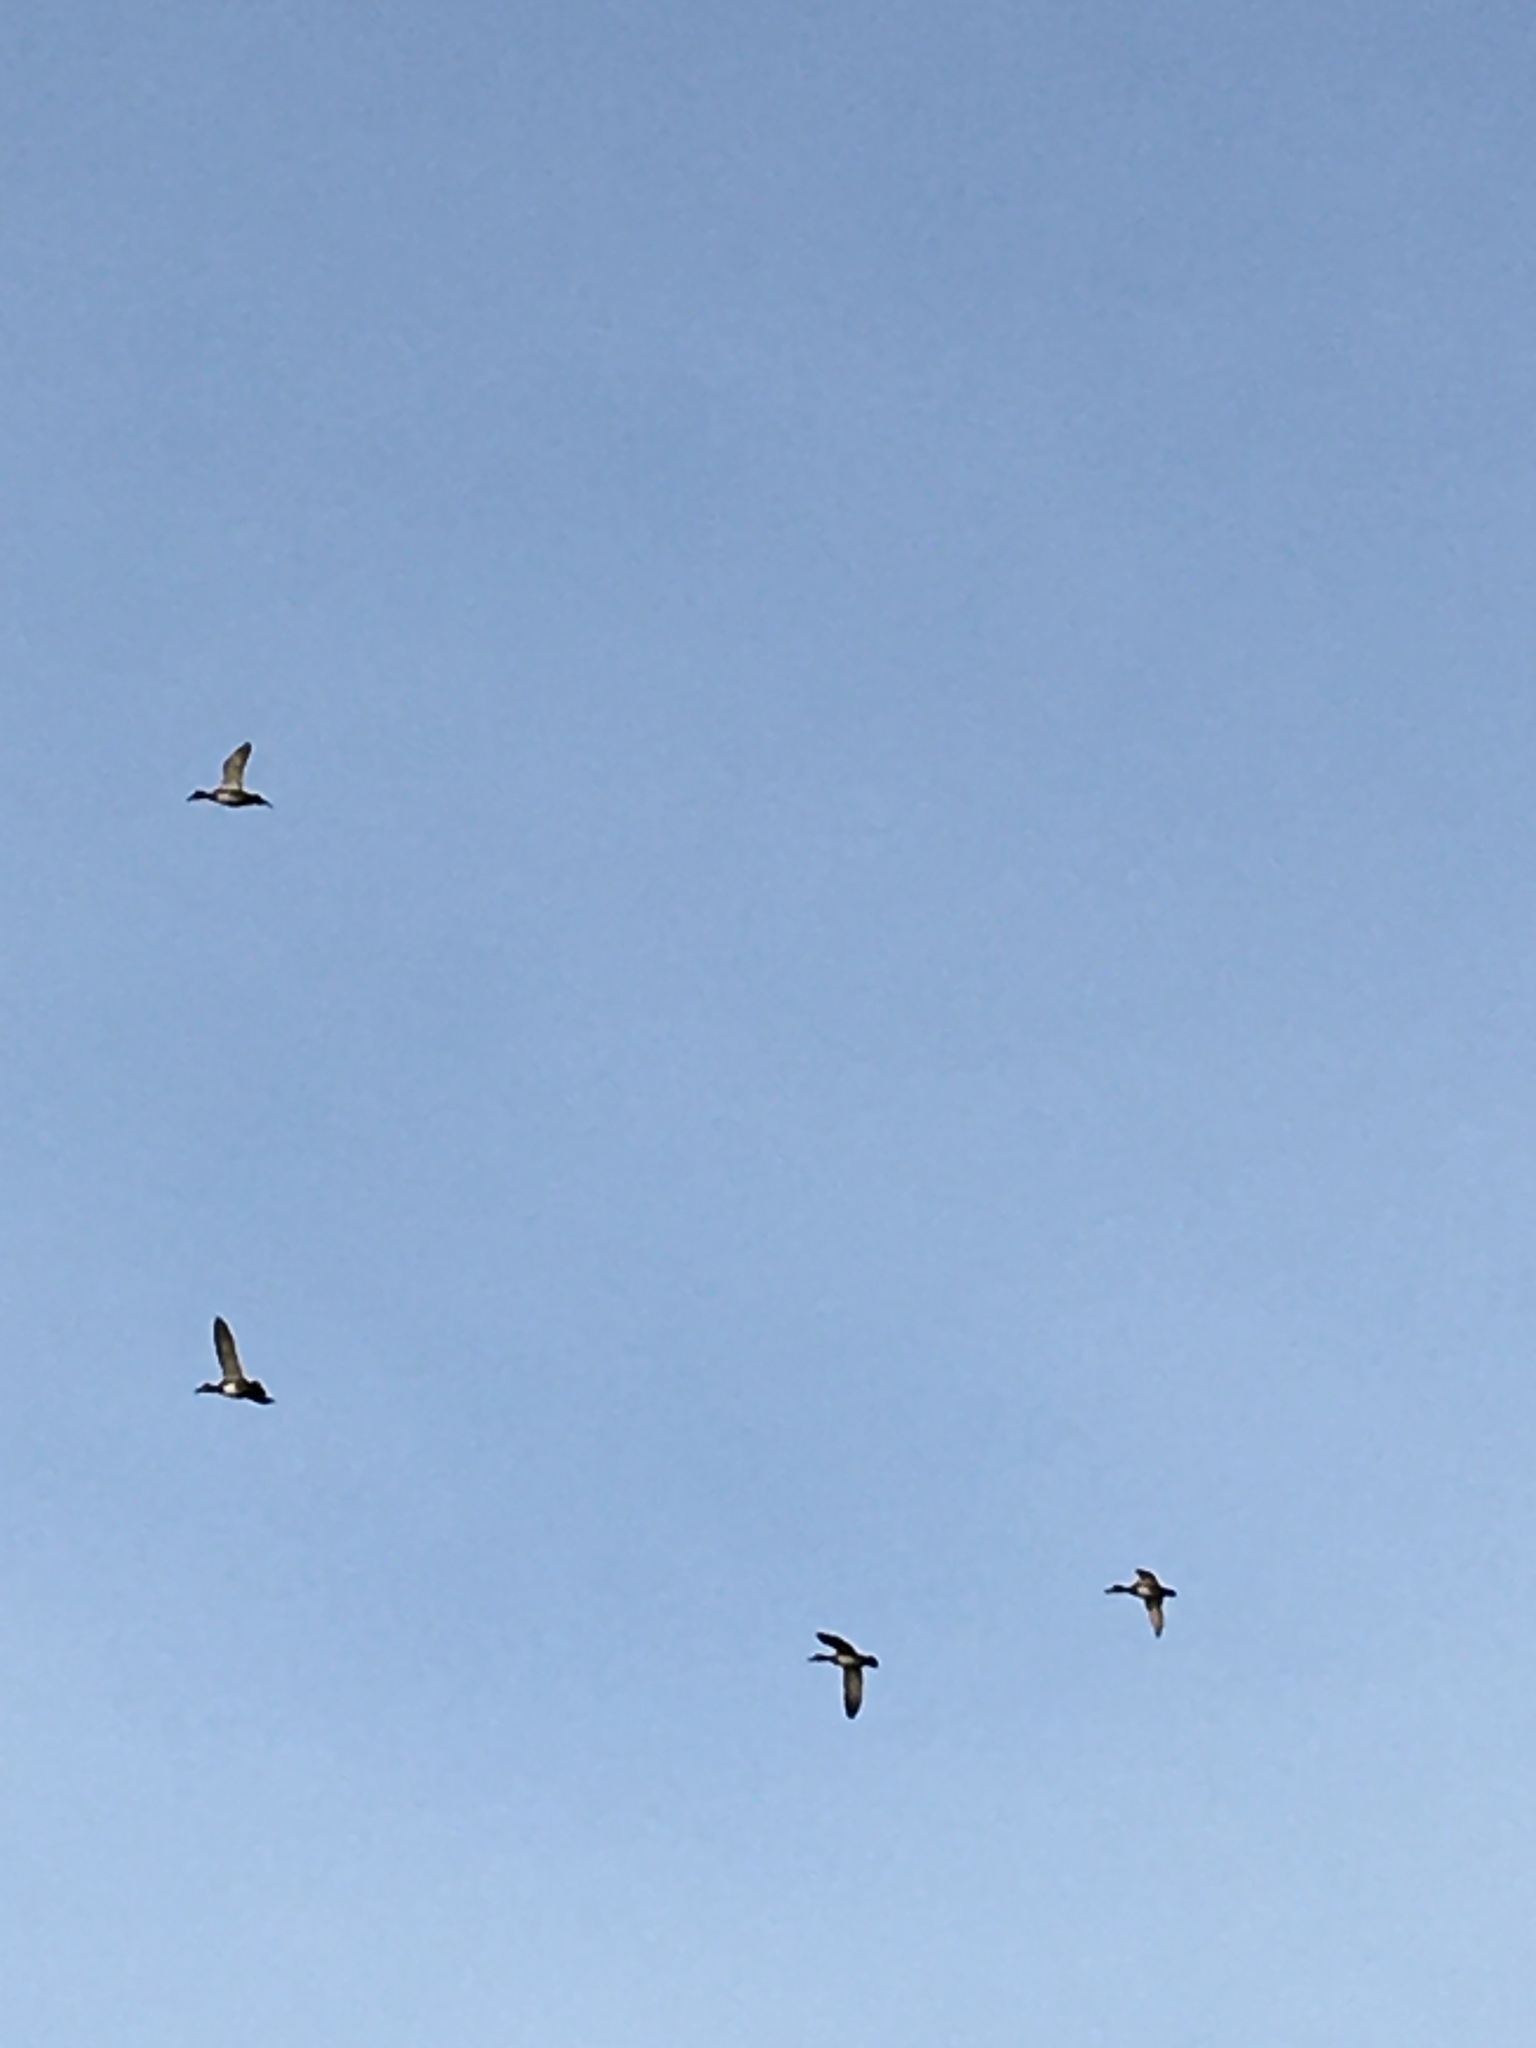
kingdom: Animalia
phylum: Chordata
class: Aves
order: Anseriformes
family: Anatidae
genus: Mareca
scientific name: Mareca strepera
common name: Gadwall
